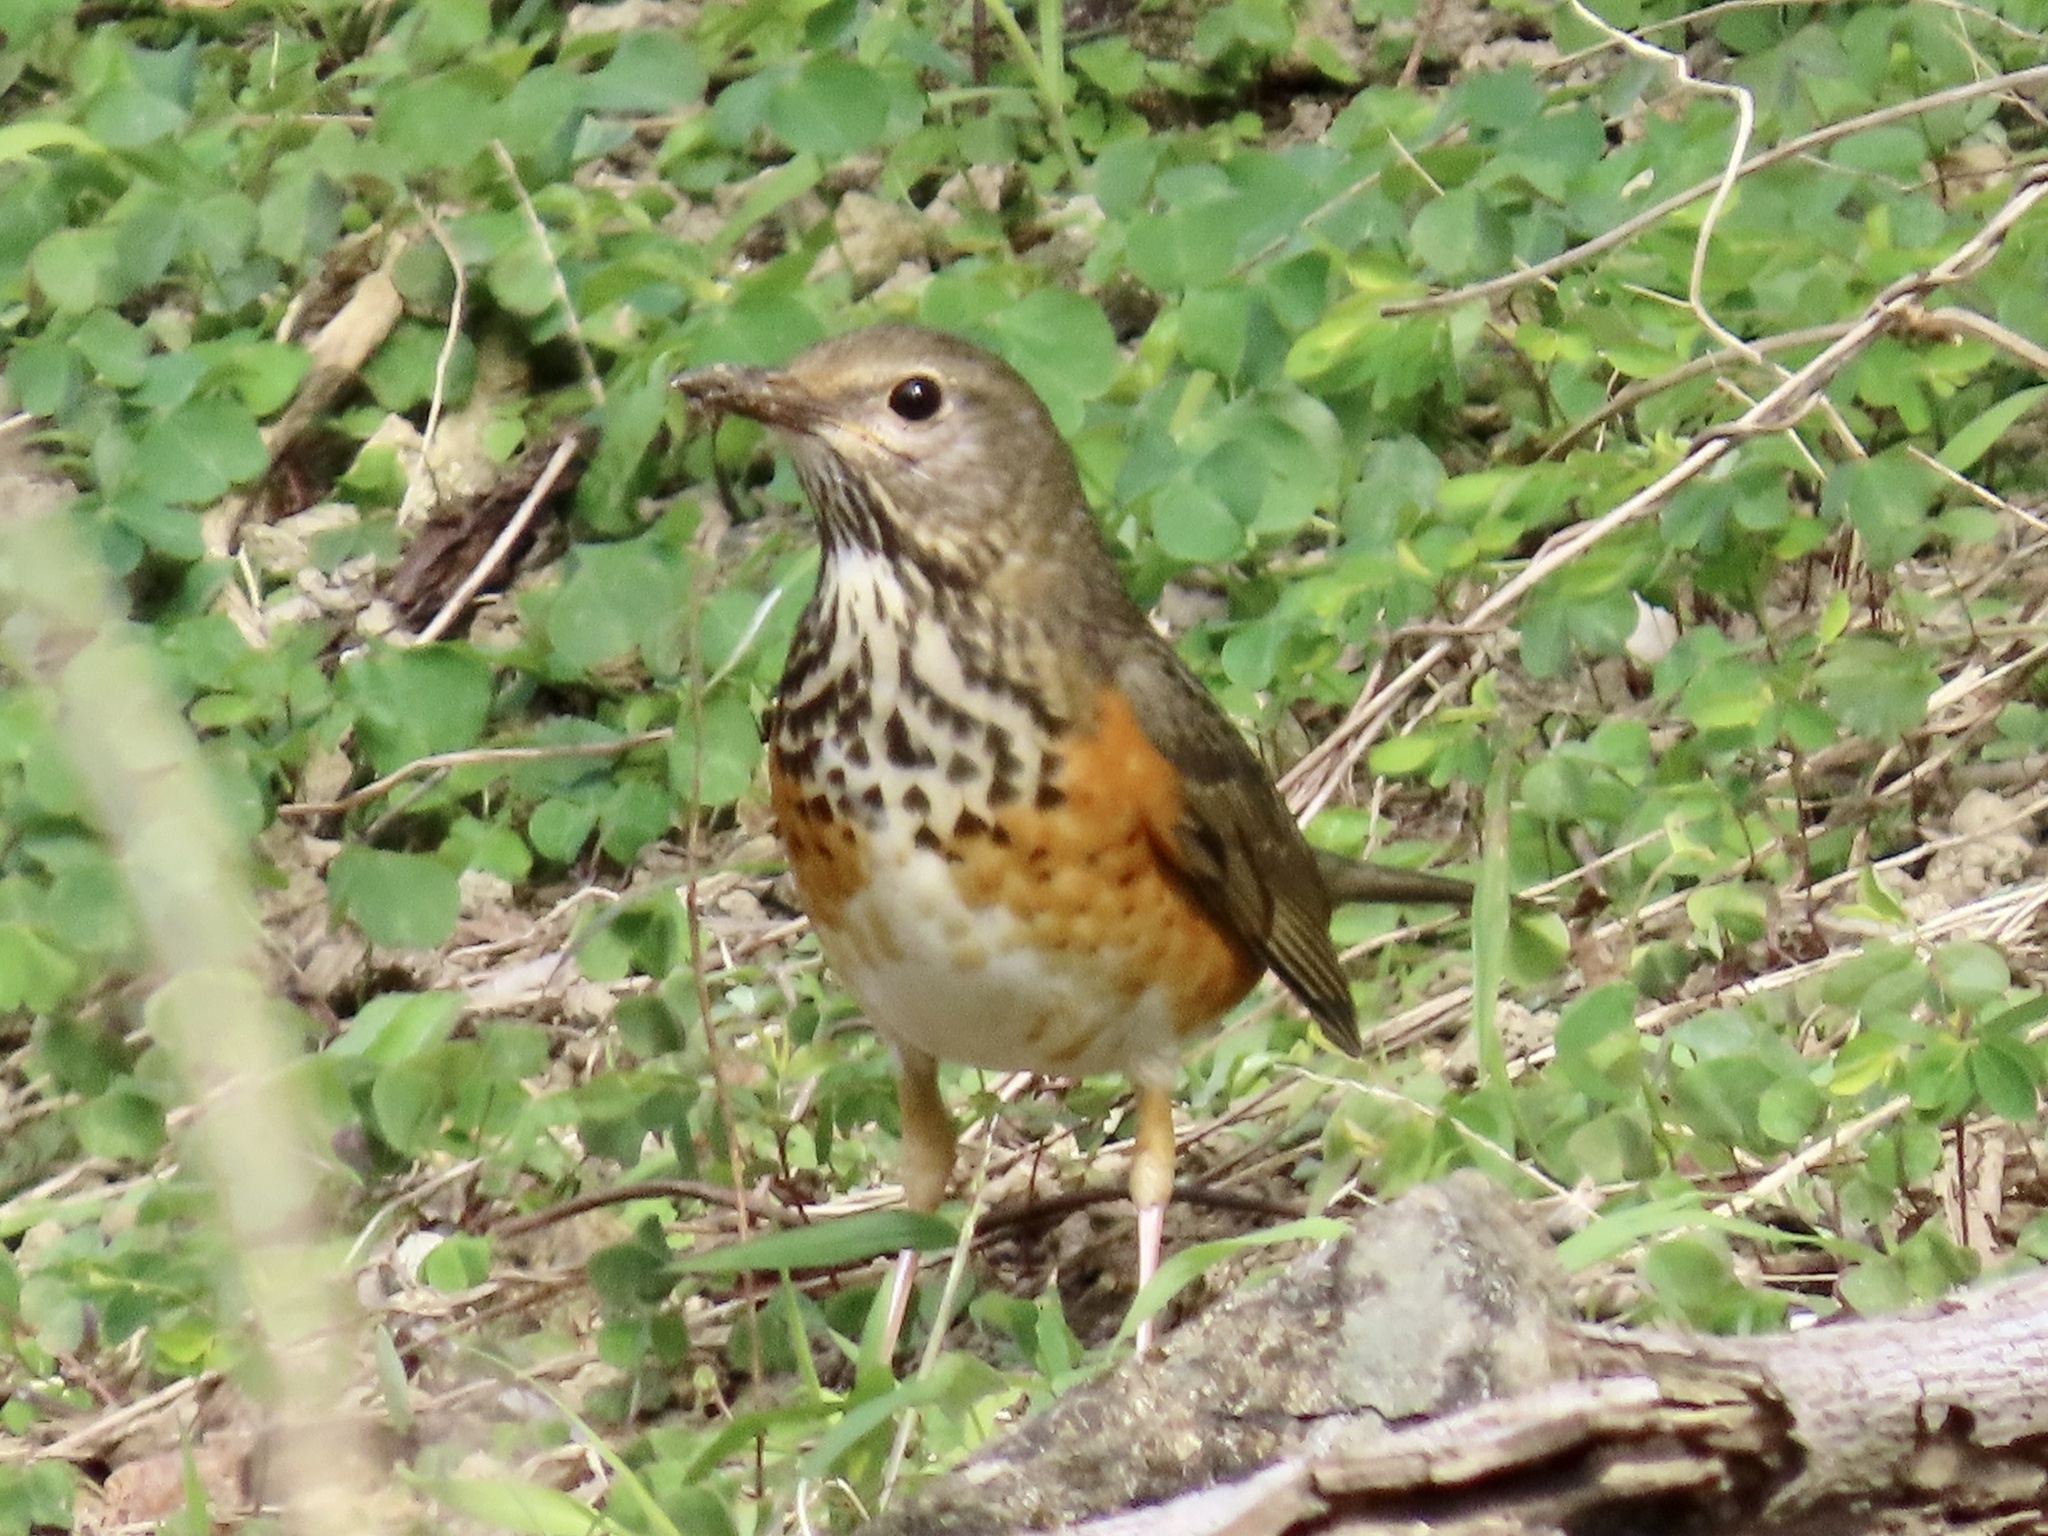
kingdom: Animalia
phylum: Chordata
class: Aves
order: Passeriformes
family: Turdidae
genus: Turdus
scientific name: Turdus hortulorum
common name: Grey-backed thrush
